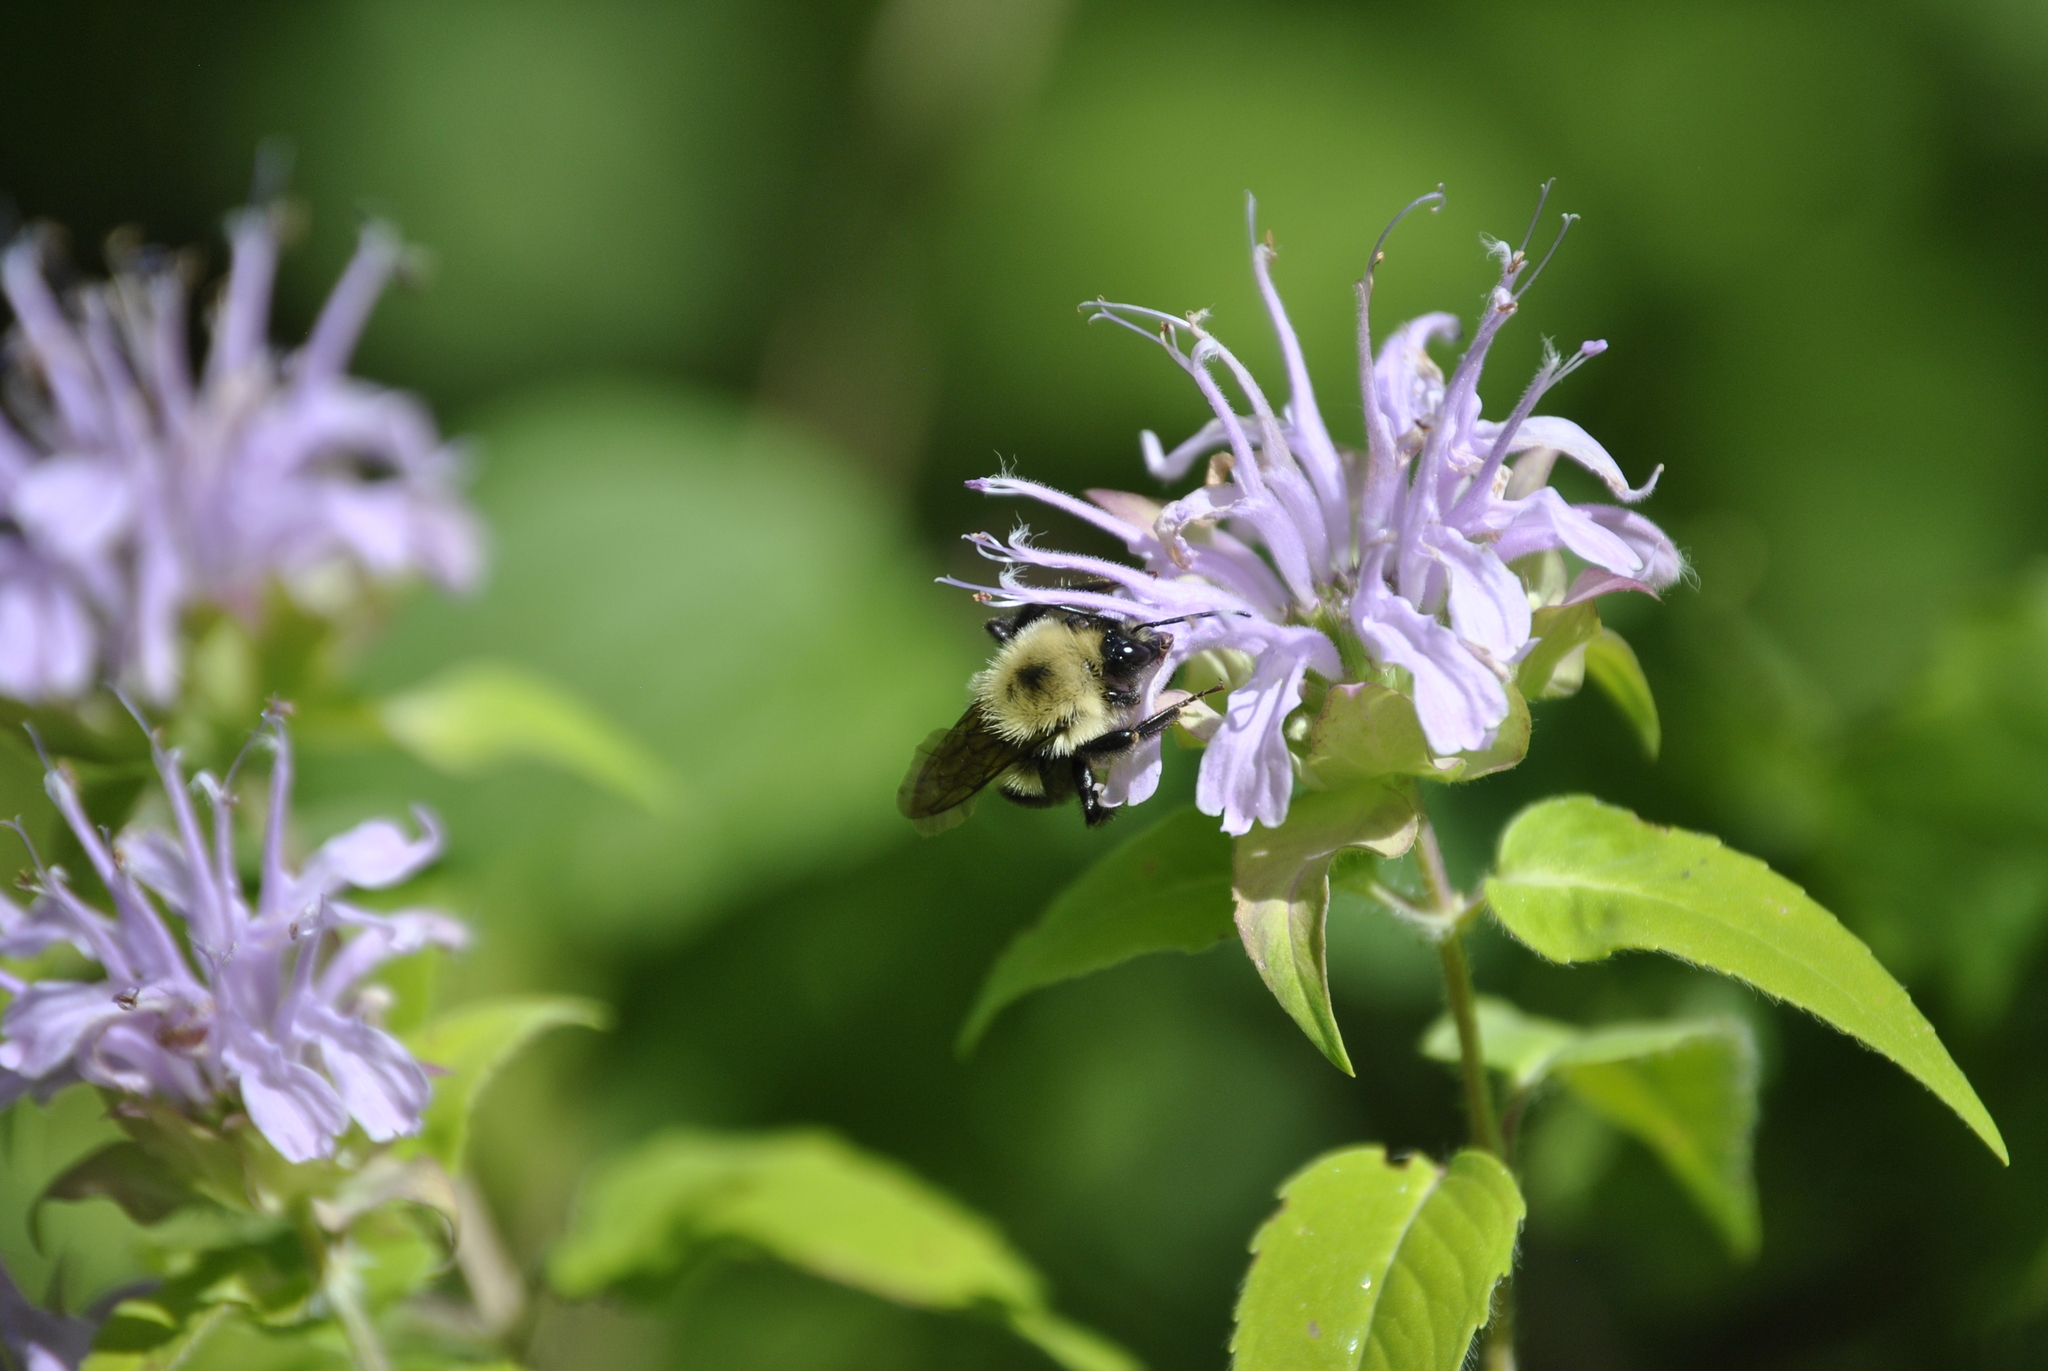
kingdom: Animalia
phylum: Arthropoda
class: Insecta
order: Hymenoptera
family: Apidae
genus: Bombus
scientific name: Bombus bimaculatus
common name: Two-spotted bumble bee
